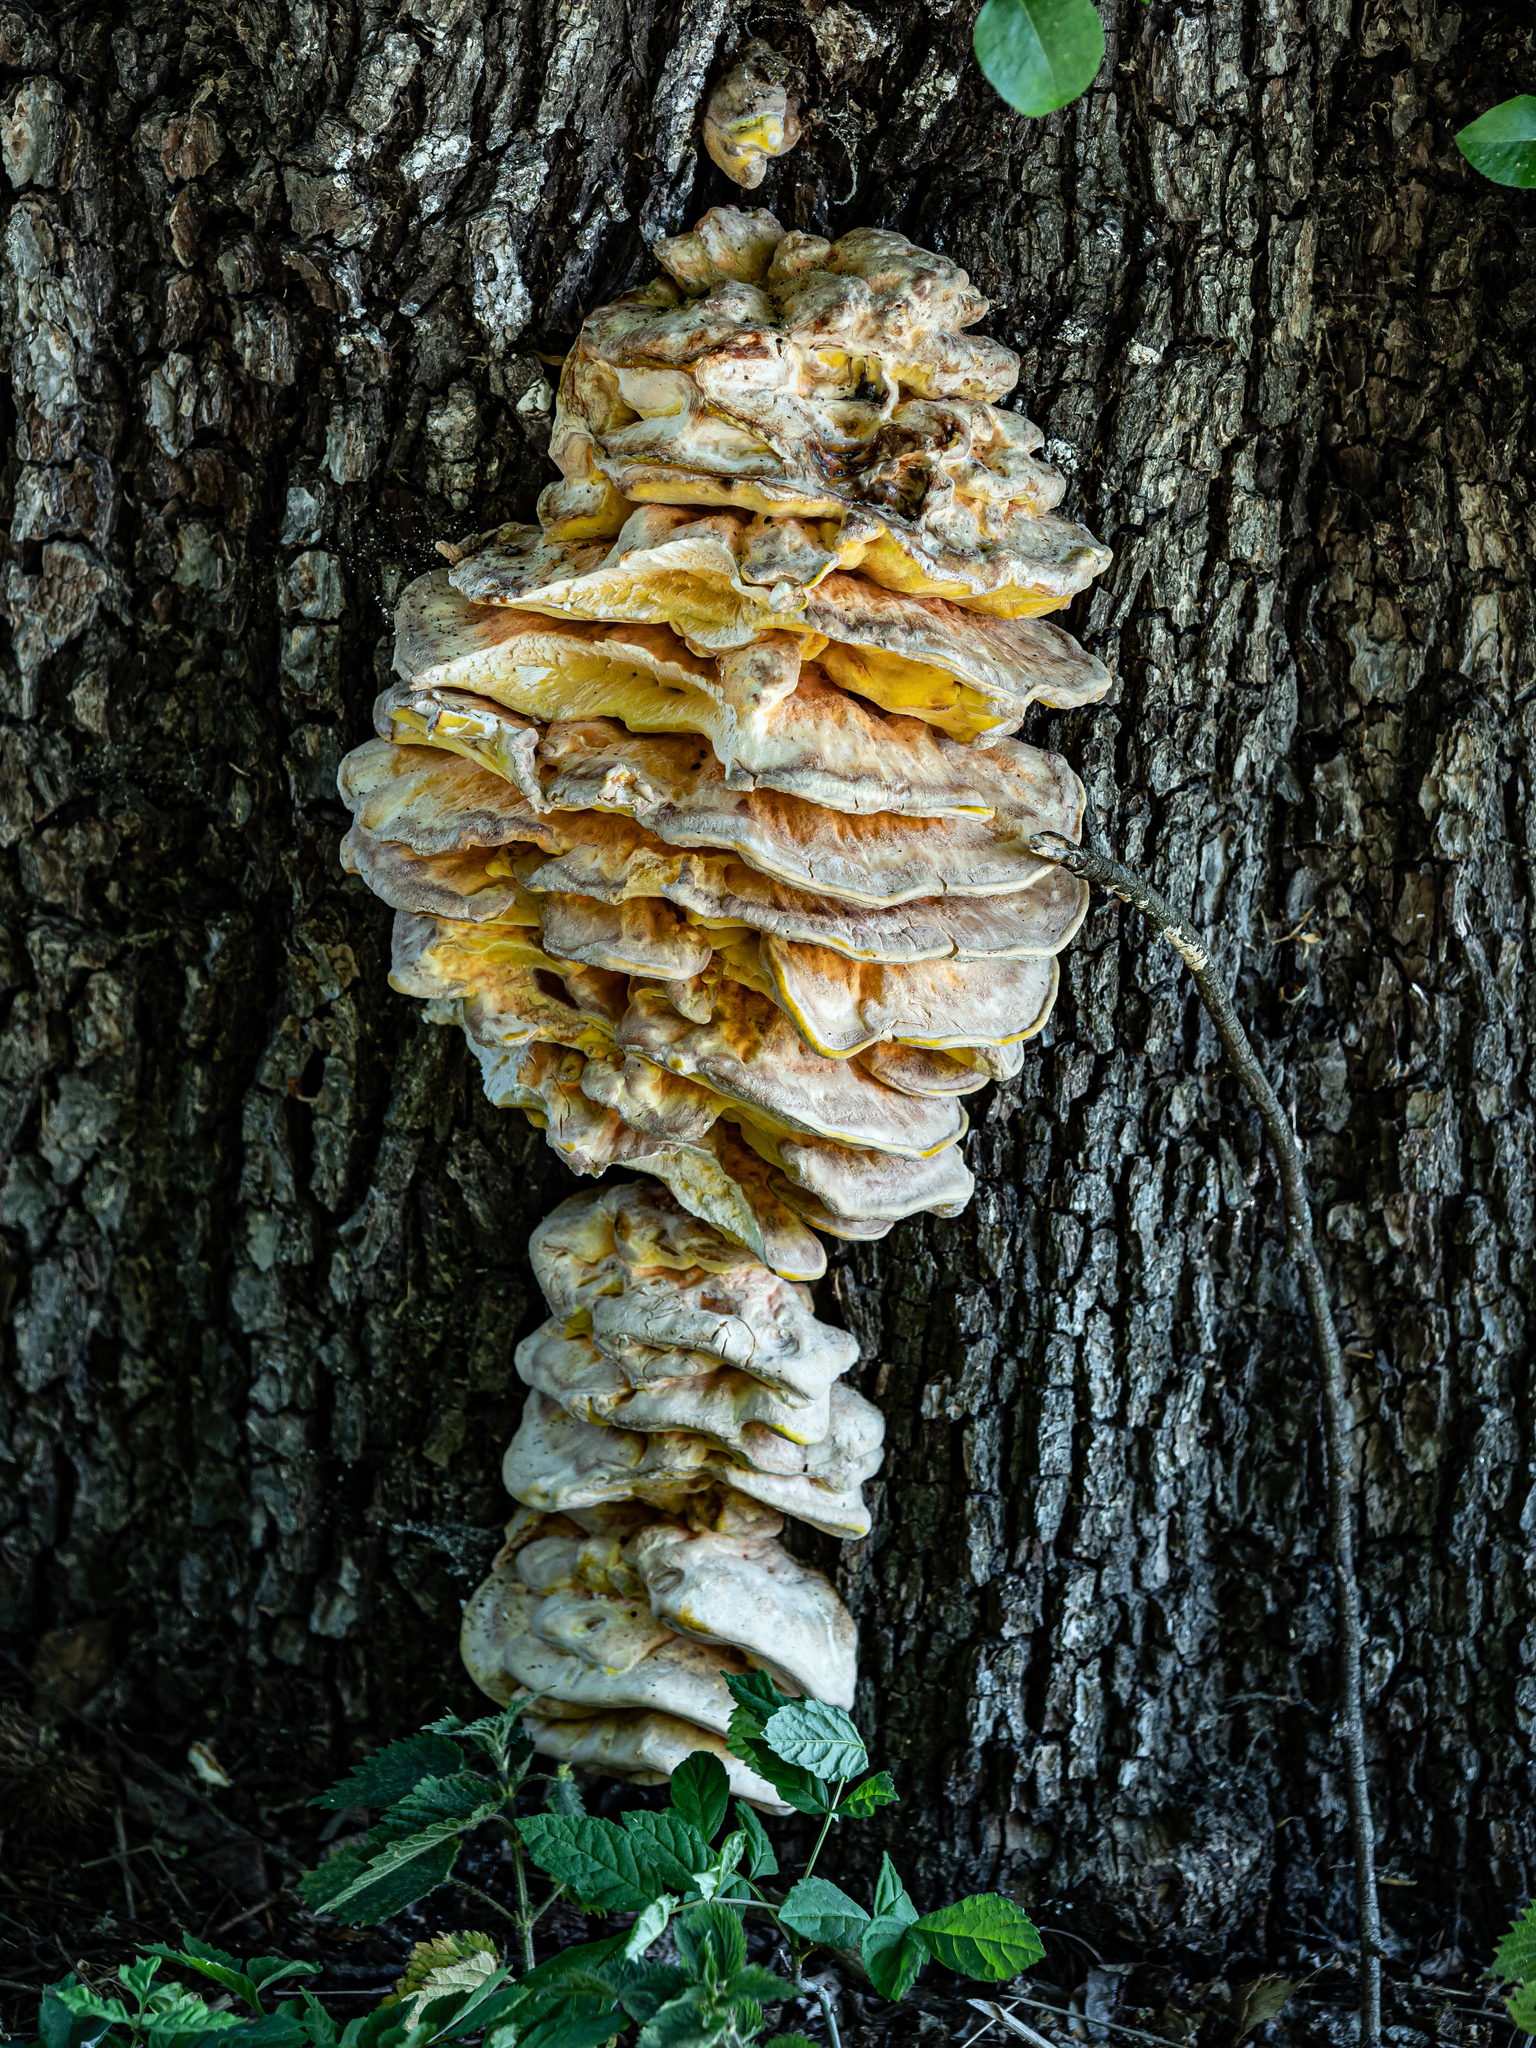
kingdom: Fungi
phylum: Basidiomycota
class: Agaricomycetes
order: Polyporales
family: Laetiporaceae
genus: Laetiporus
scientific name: Laetiporus sulphureus
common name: Chicken of the woods
